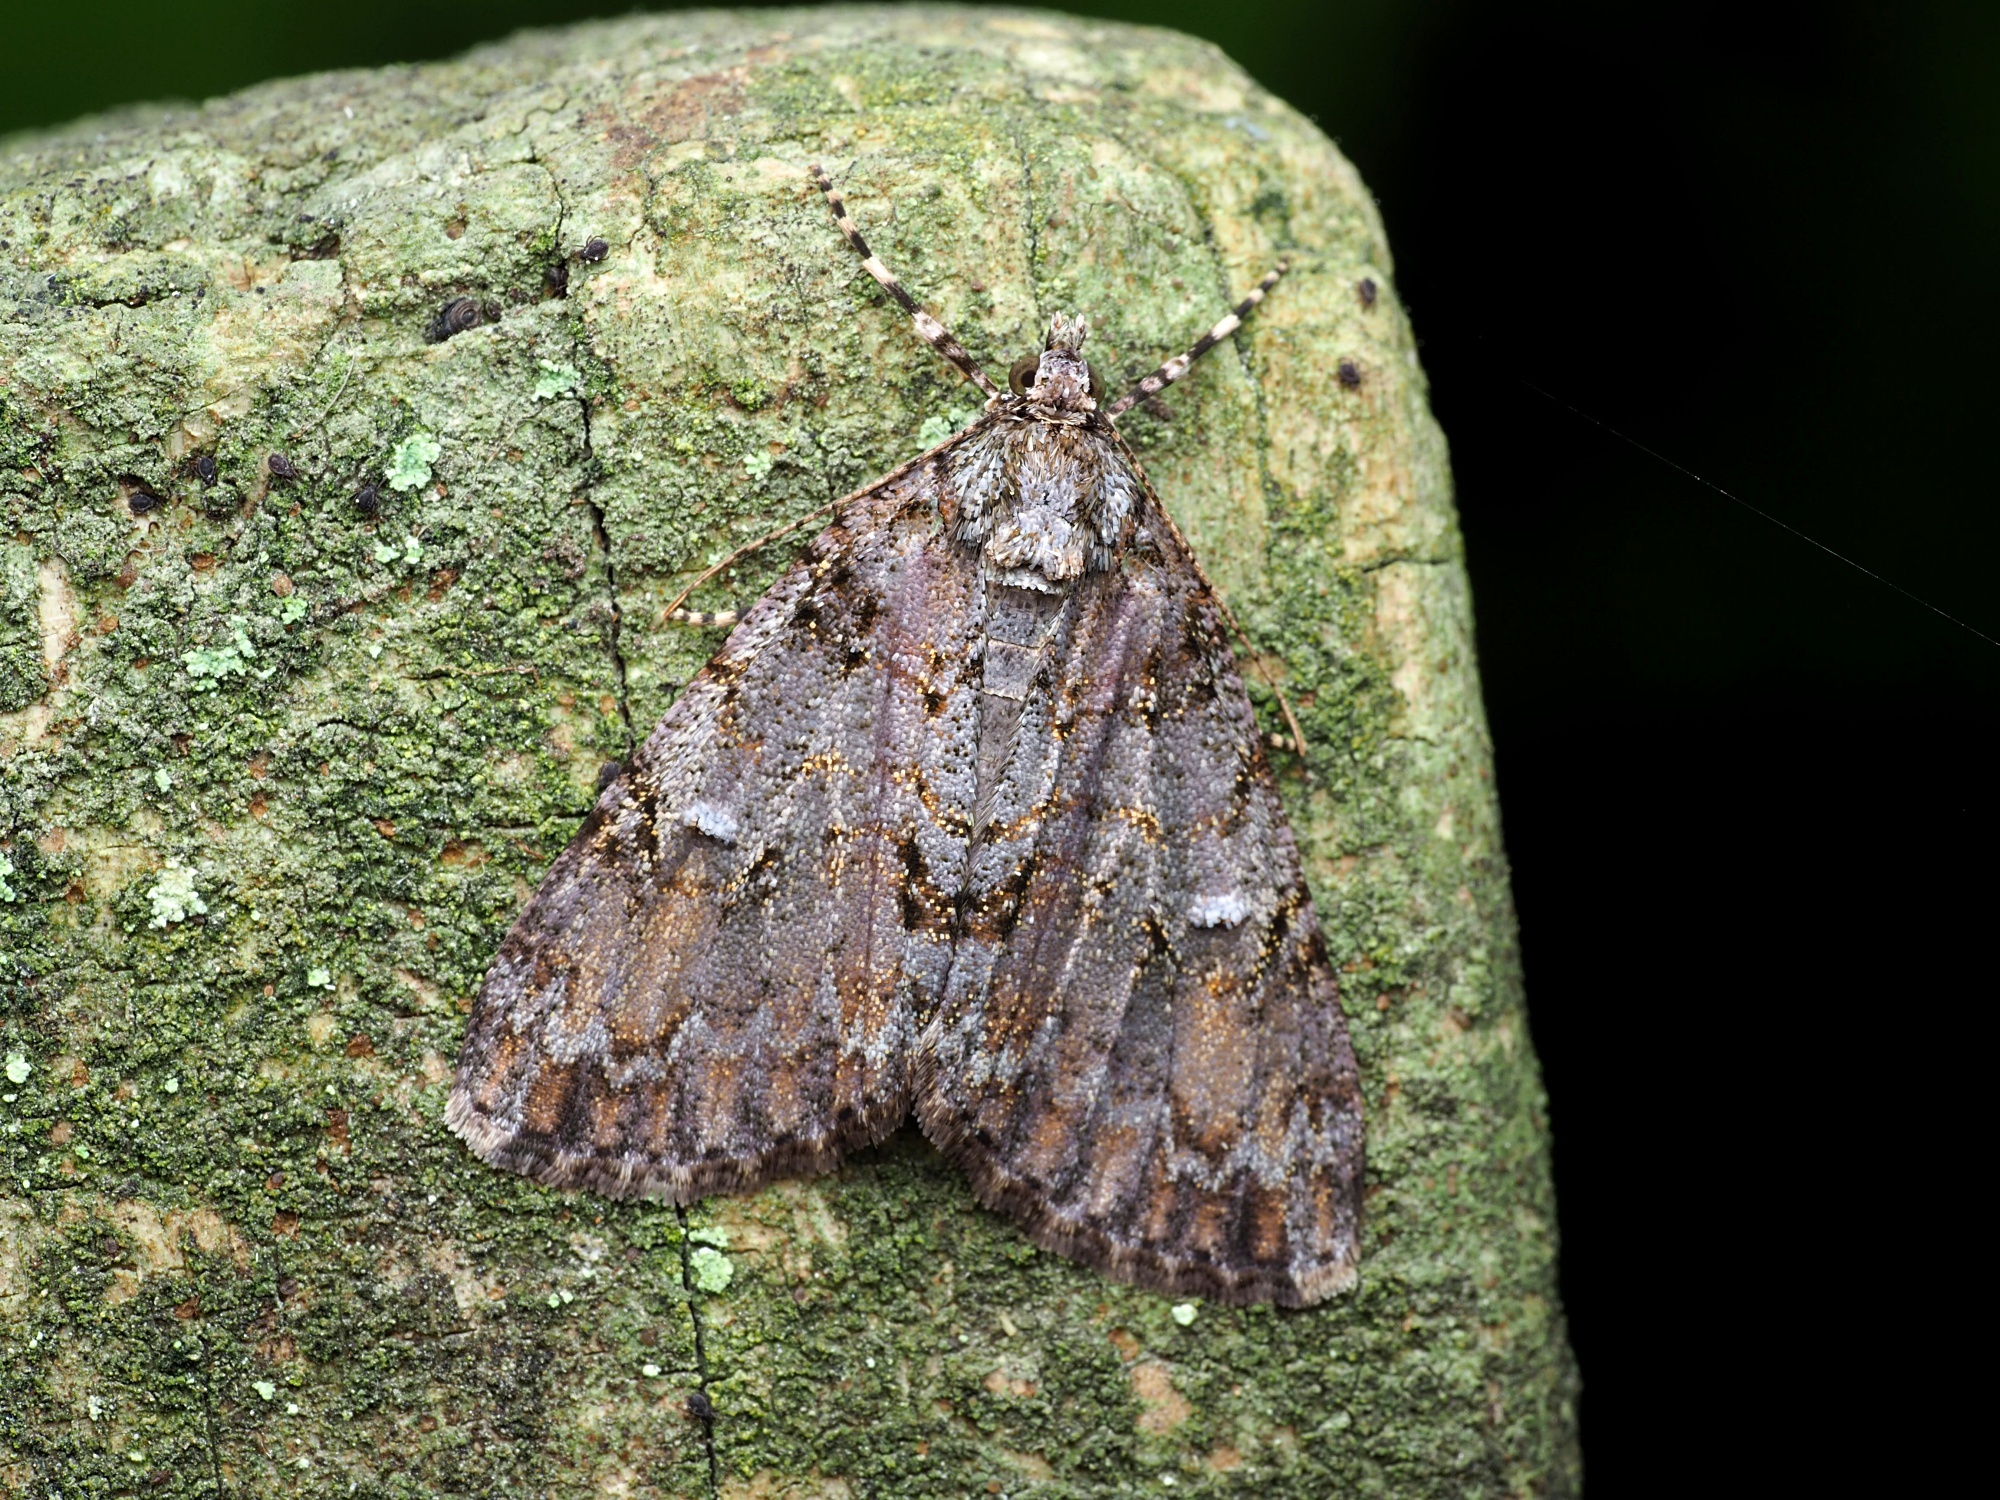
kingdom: Animalia
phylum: Arthropoda
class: Insecta
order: Lepidoptera
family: Geometridae
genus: Pseudocoremia
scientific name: Pseudocoremia suavis
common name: Common forest looper
